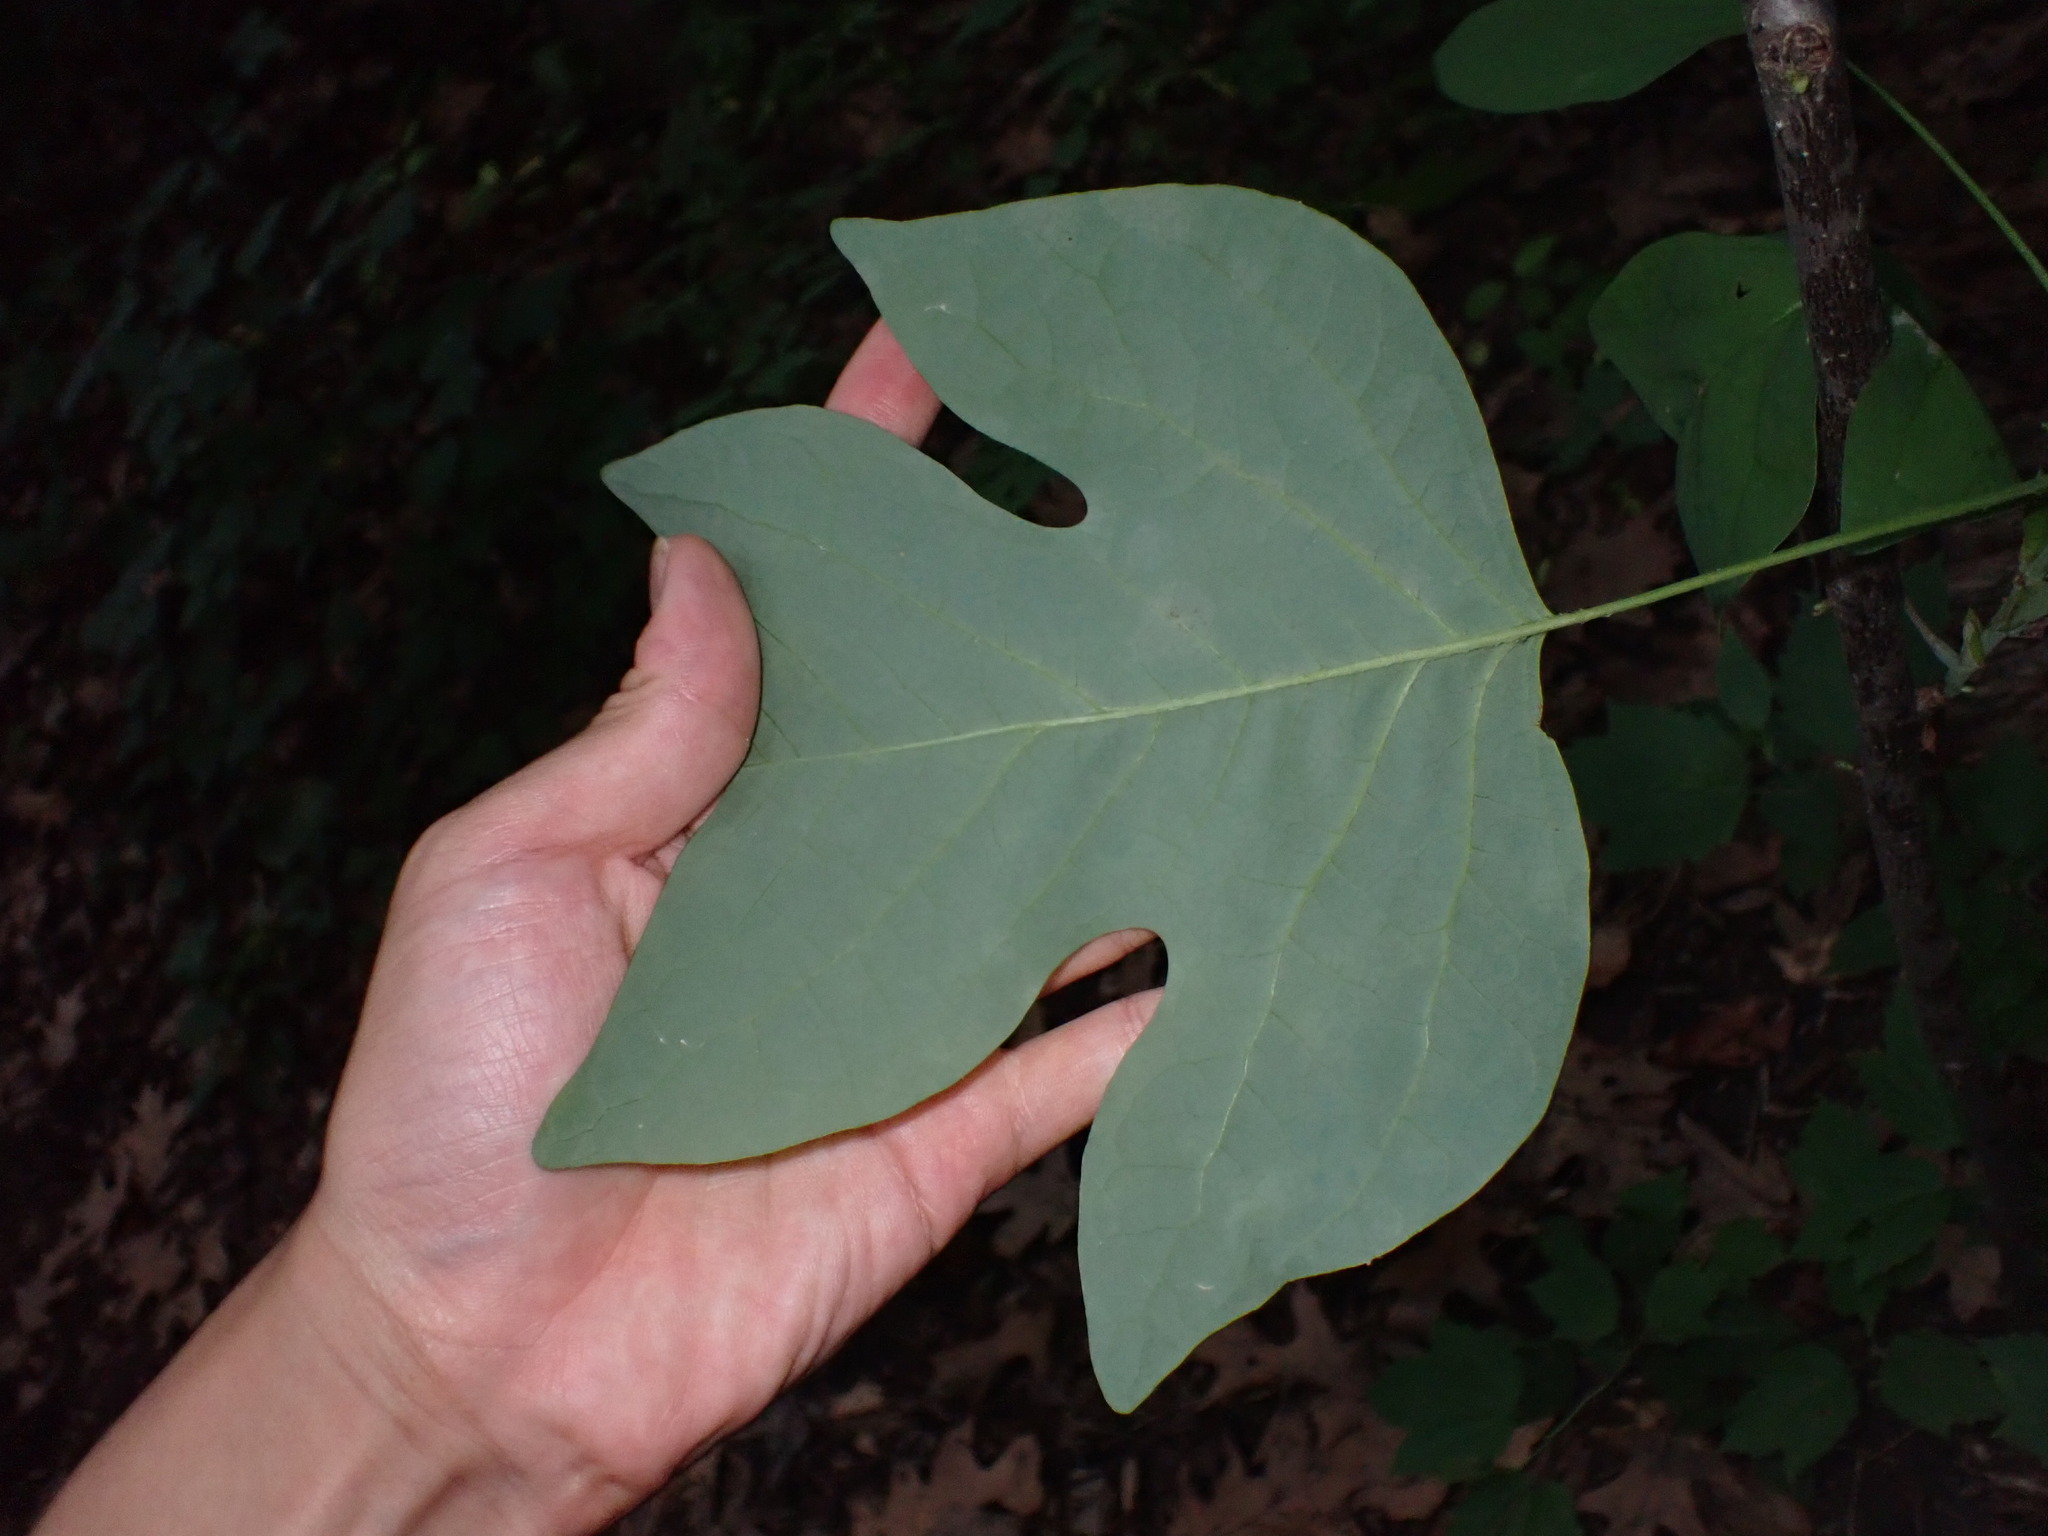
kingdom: Fungi
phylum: Ascomycota
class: Leotiomycetes
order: Helotiales
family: Erysiphaceae
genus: Erysiphe
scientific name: Erysiphe liriodendri
